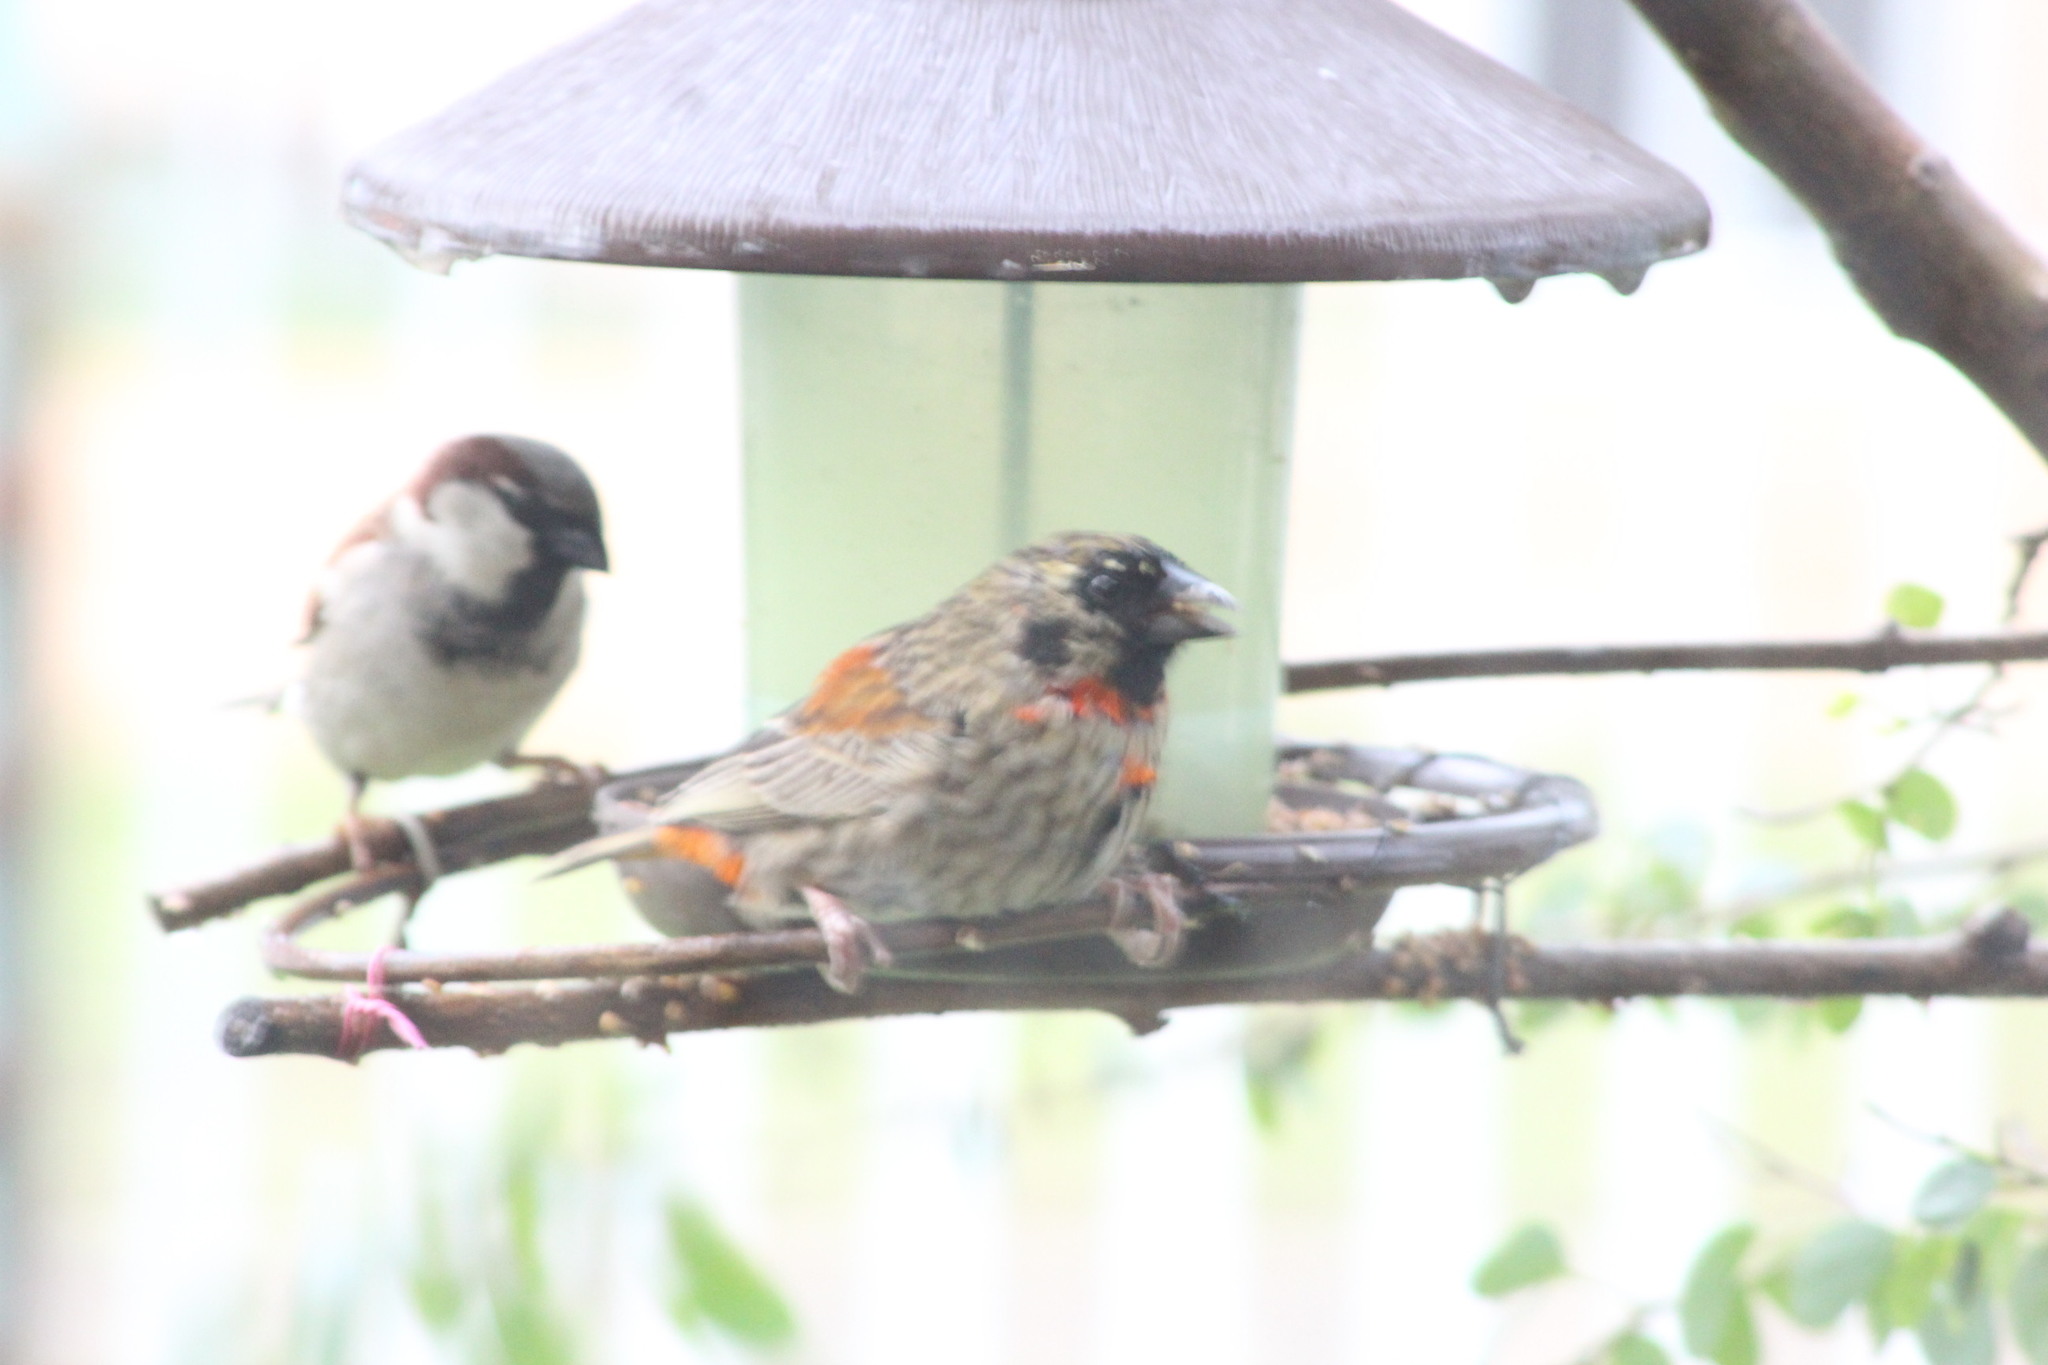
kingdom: Animalia
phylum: Chordata
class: Aves
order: Passeriformes
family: Ploceidae
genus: Euplectes
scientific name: Euplectes orix
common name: Southern red bishop
